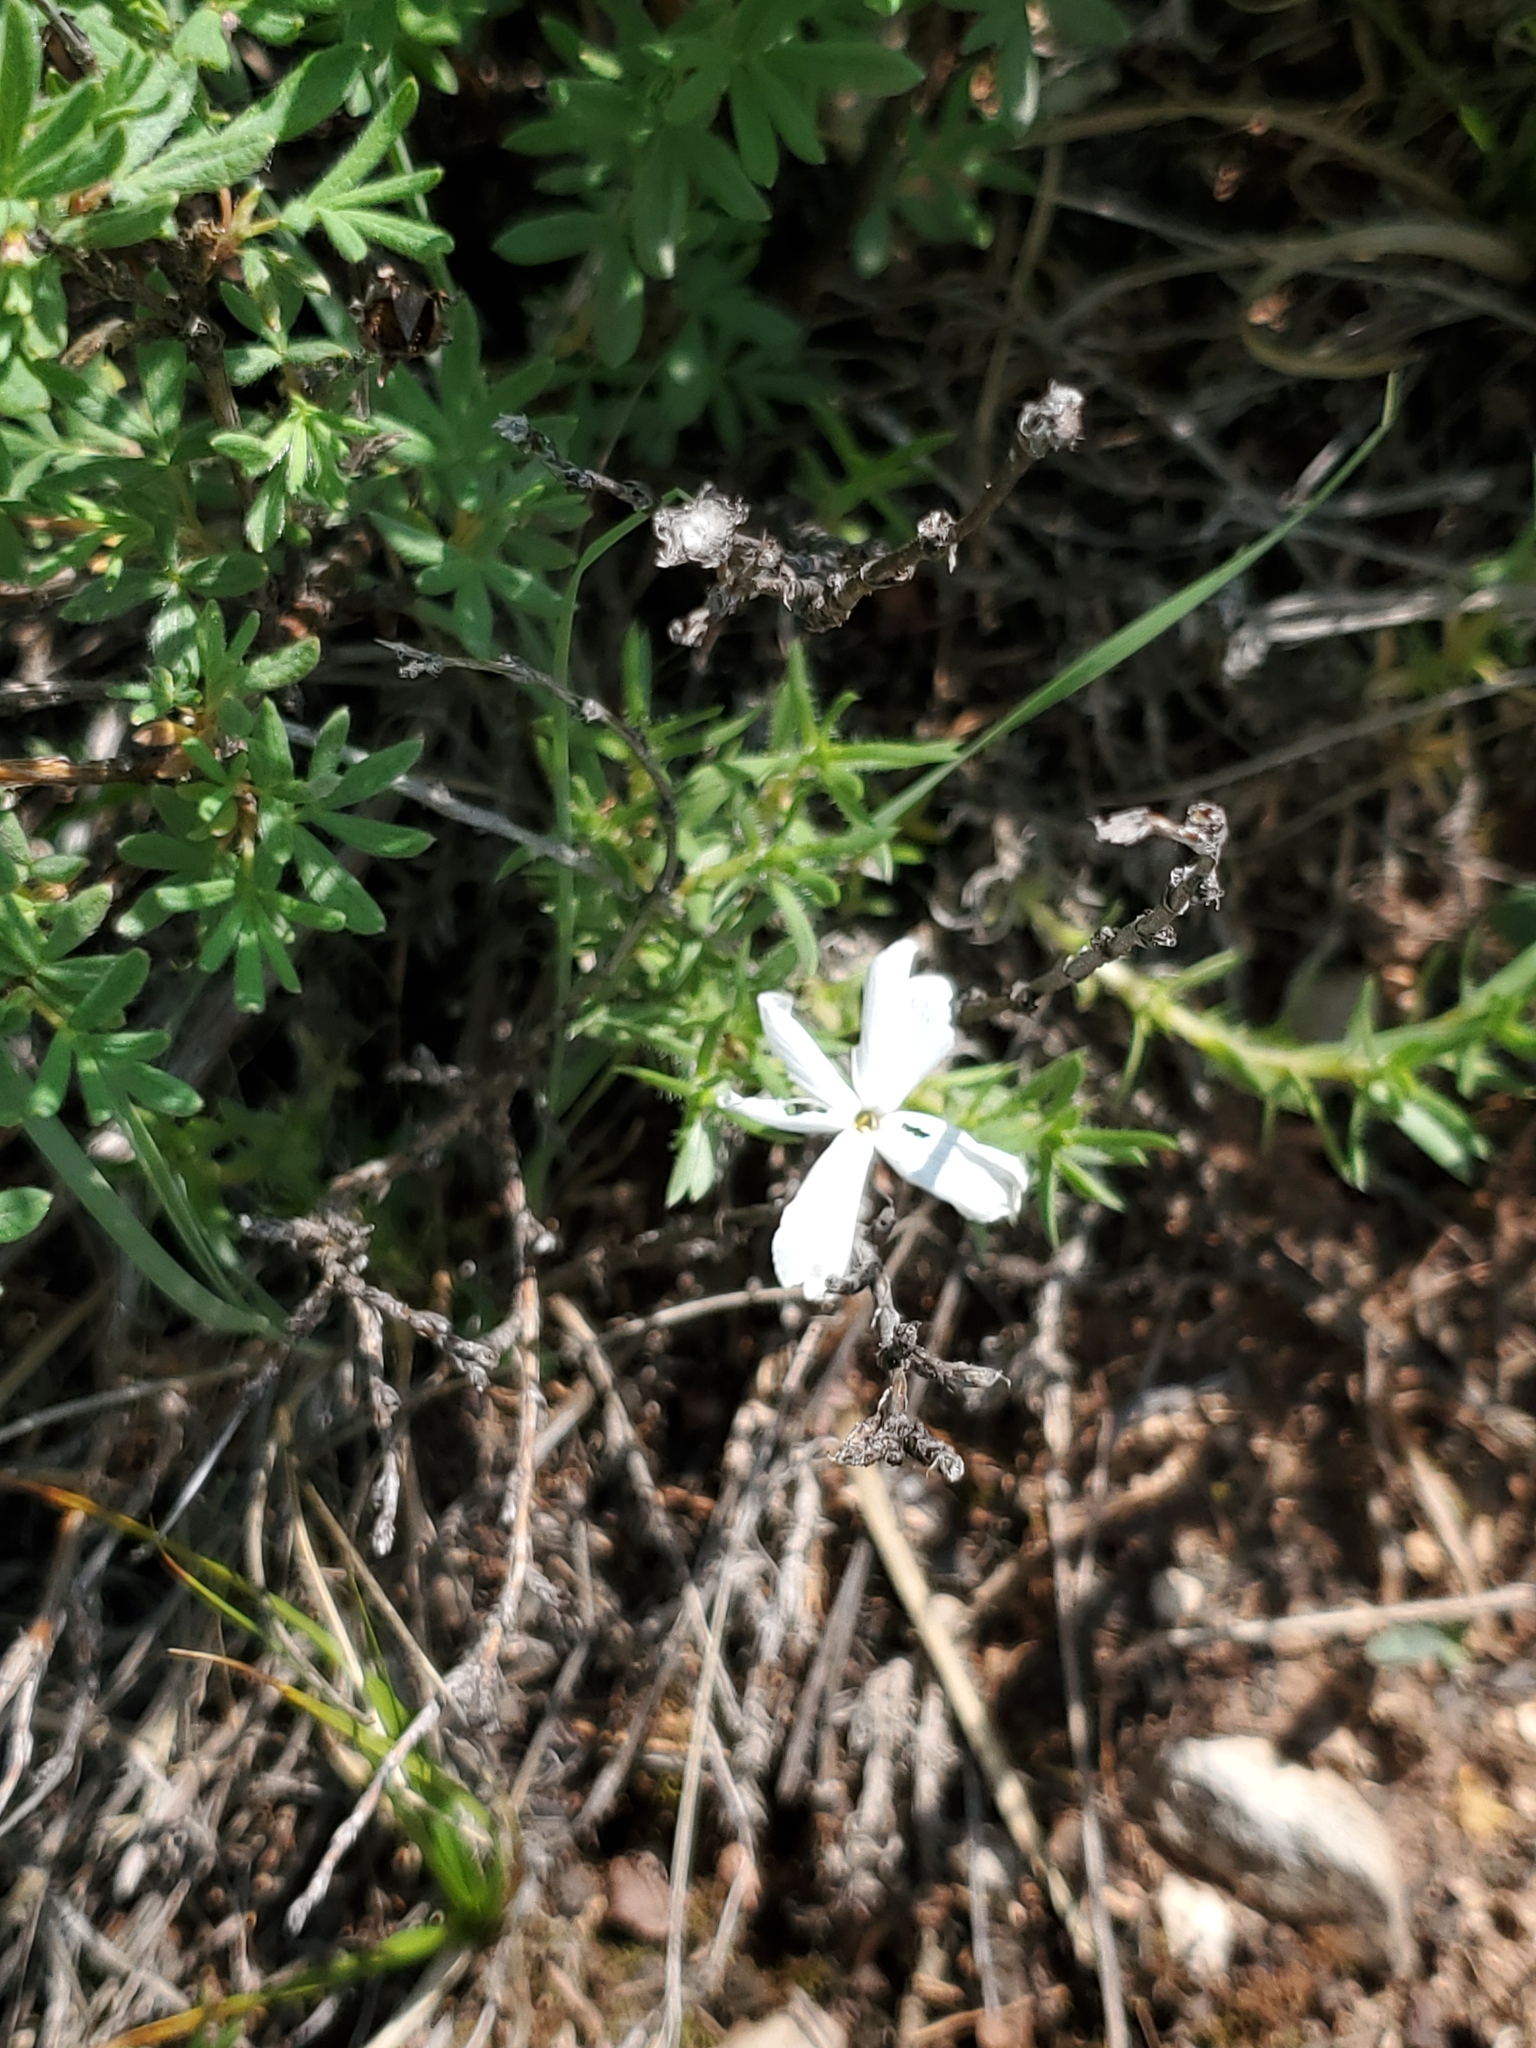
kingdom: Plantae
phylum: Tracheophyta
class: Magnoliopsida
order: Ericales
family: Polemoniaceae
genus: Phlox
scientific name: Phlox hoodii
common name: Moss phlox
